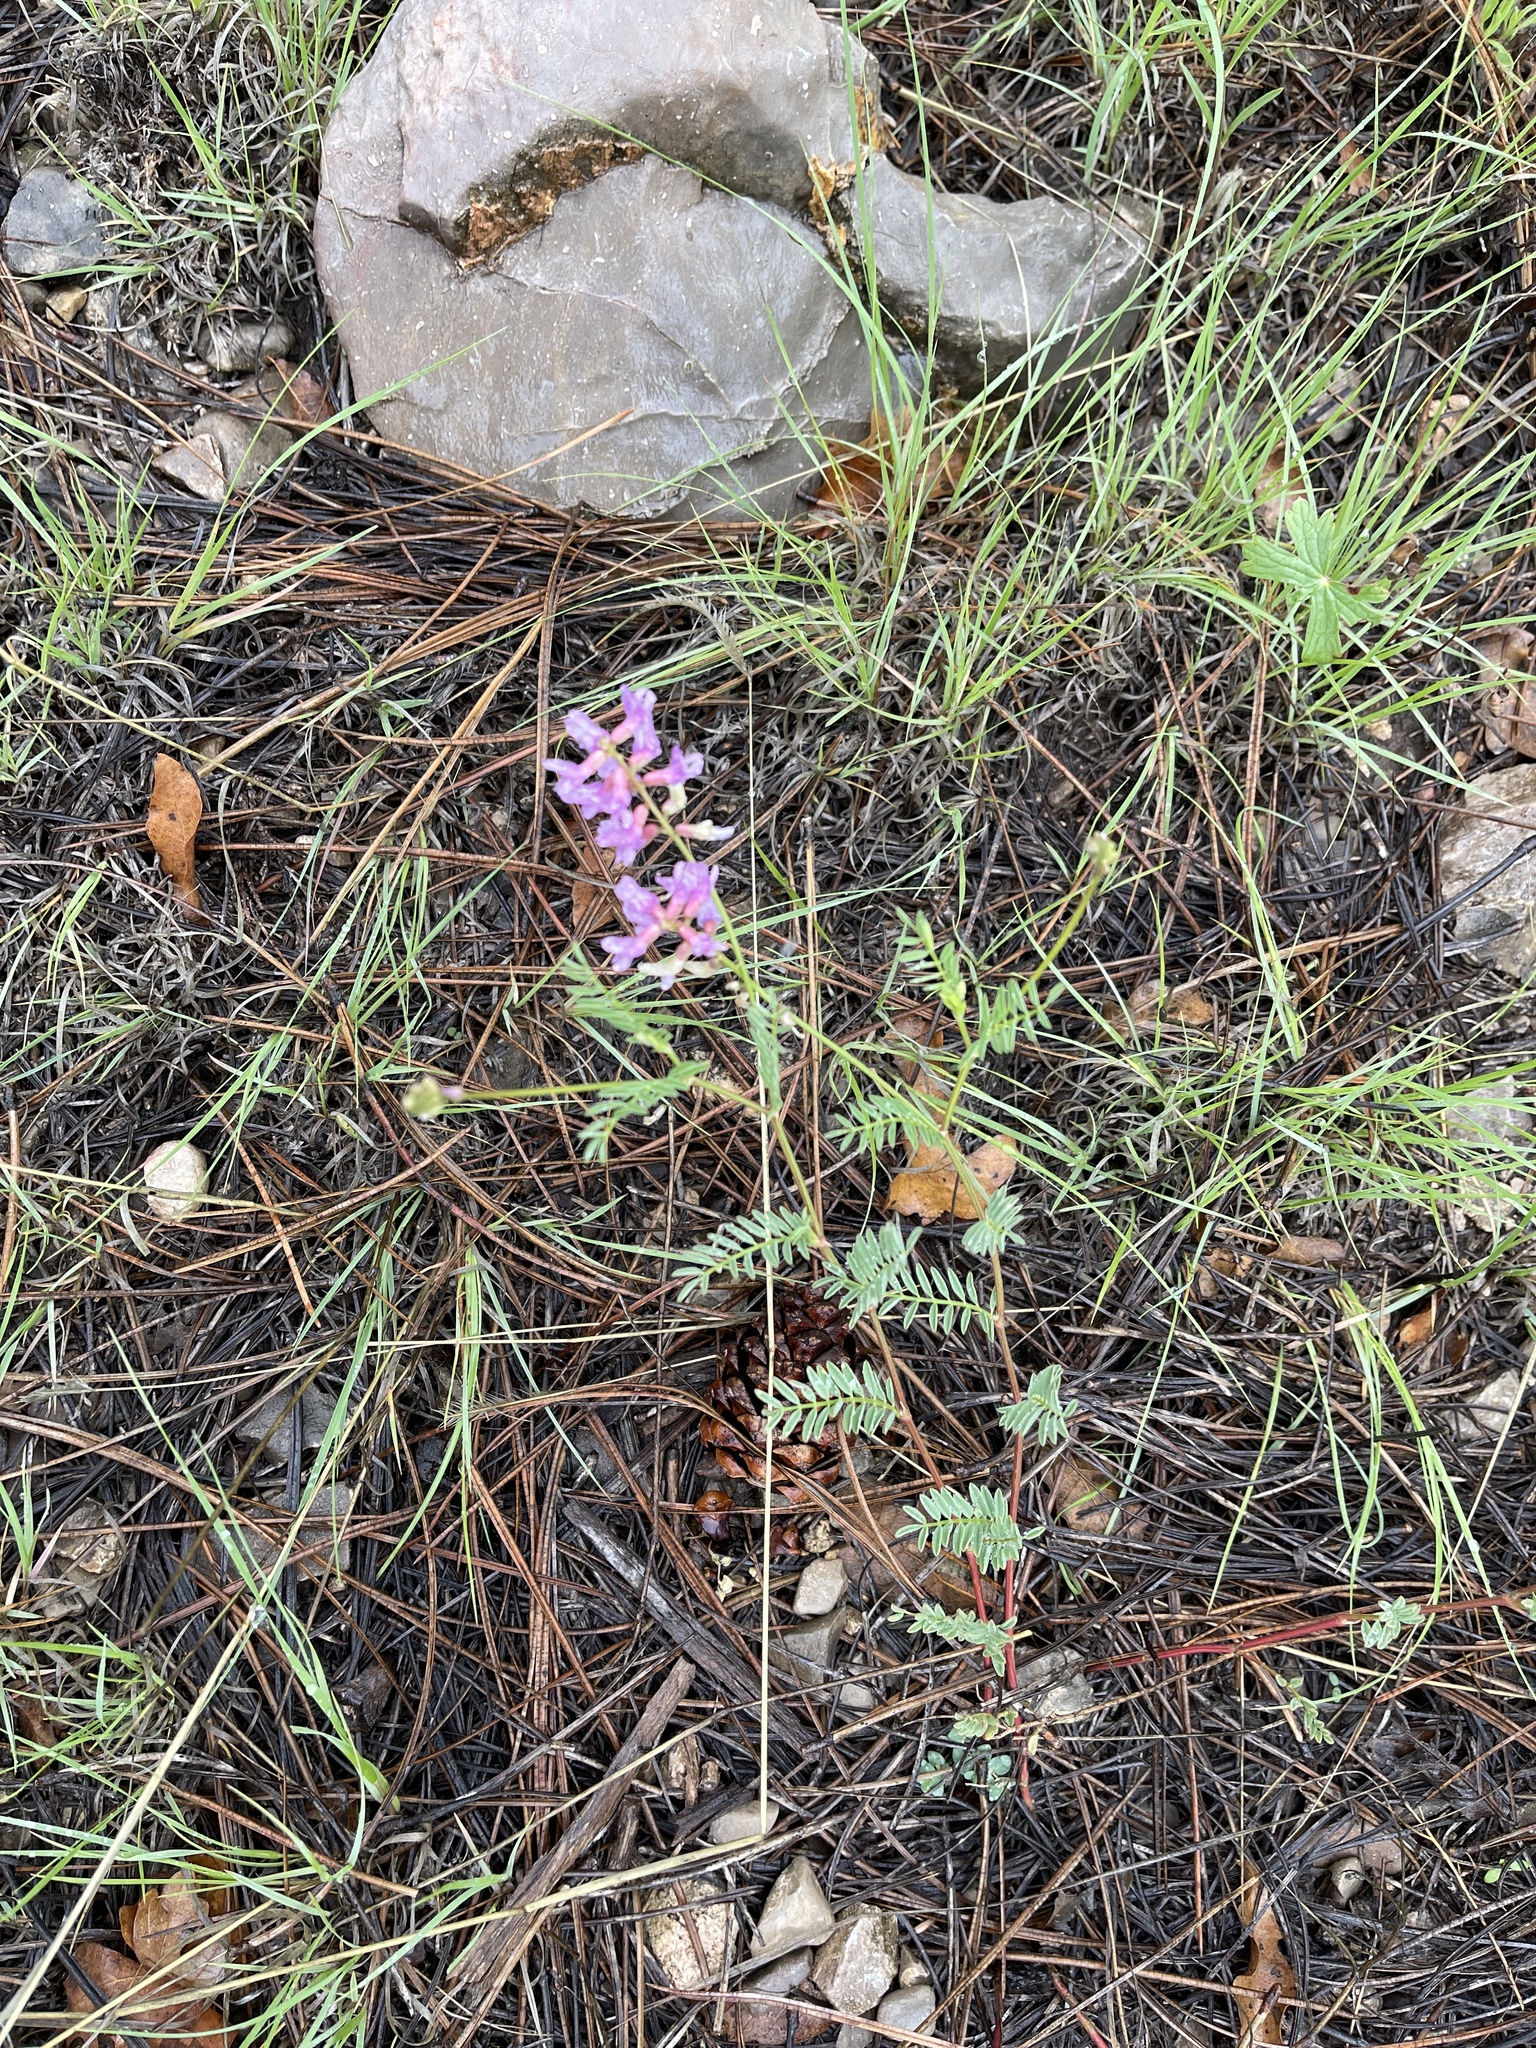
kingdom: Plantae
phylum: Tracheophyta
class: Magnoliopsida
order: Fabales
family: Fabaceae
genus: Astragalus
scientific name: Astragalus flexuosus
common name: Pliant milk-vetch
